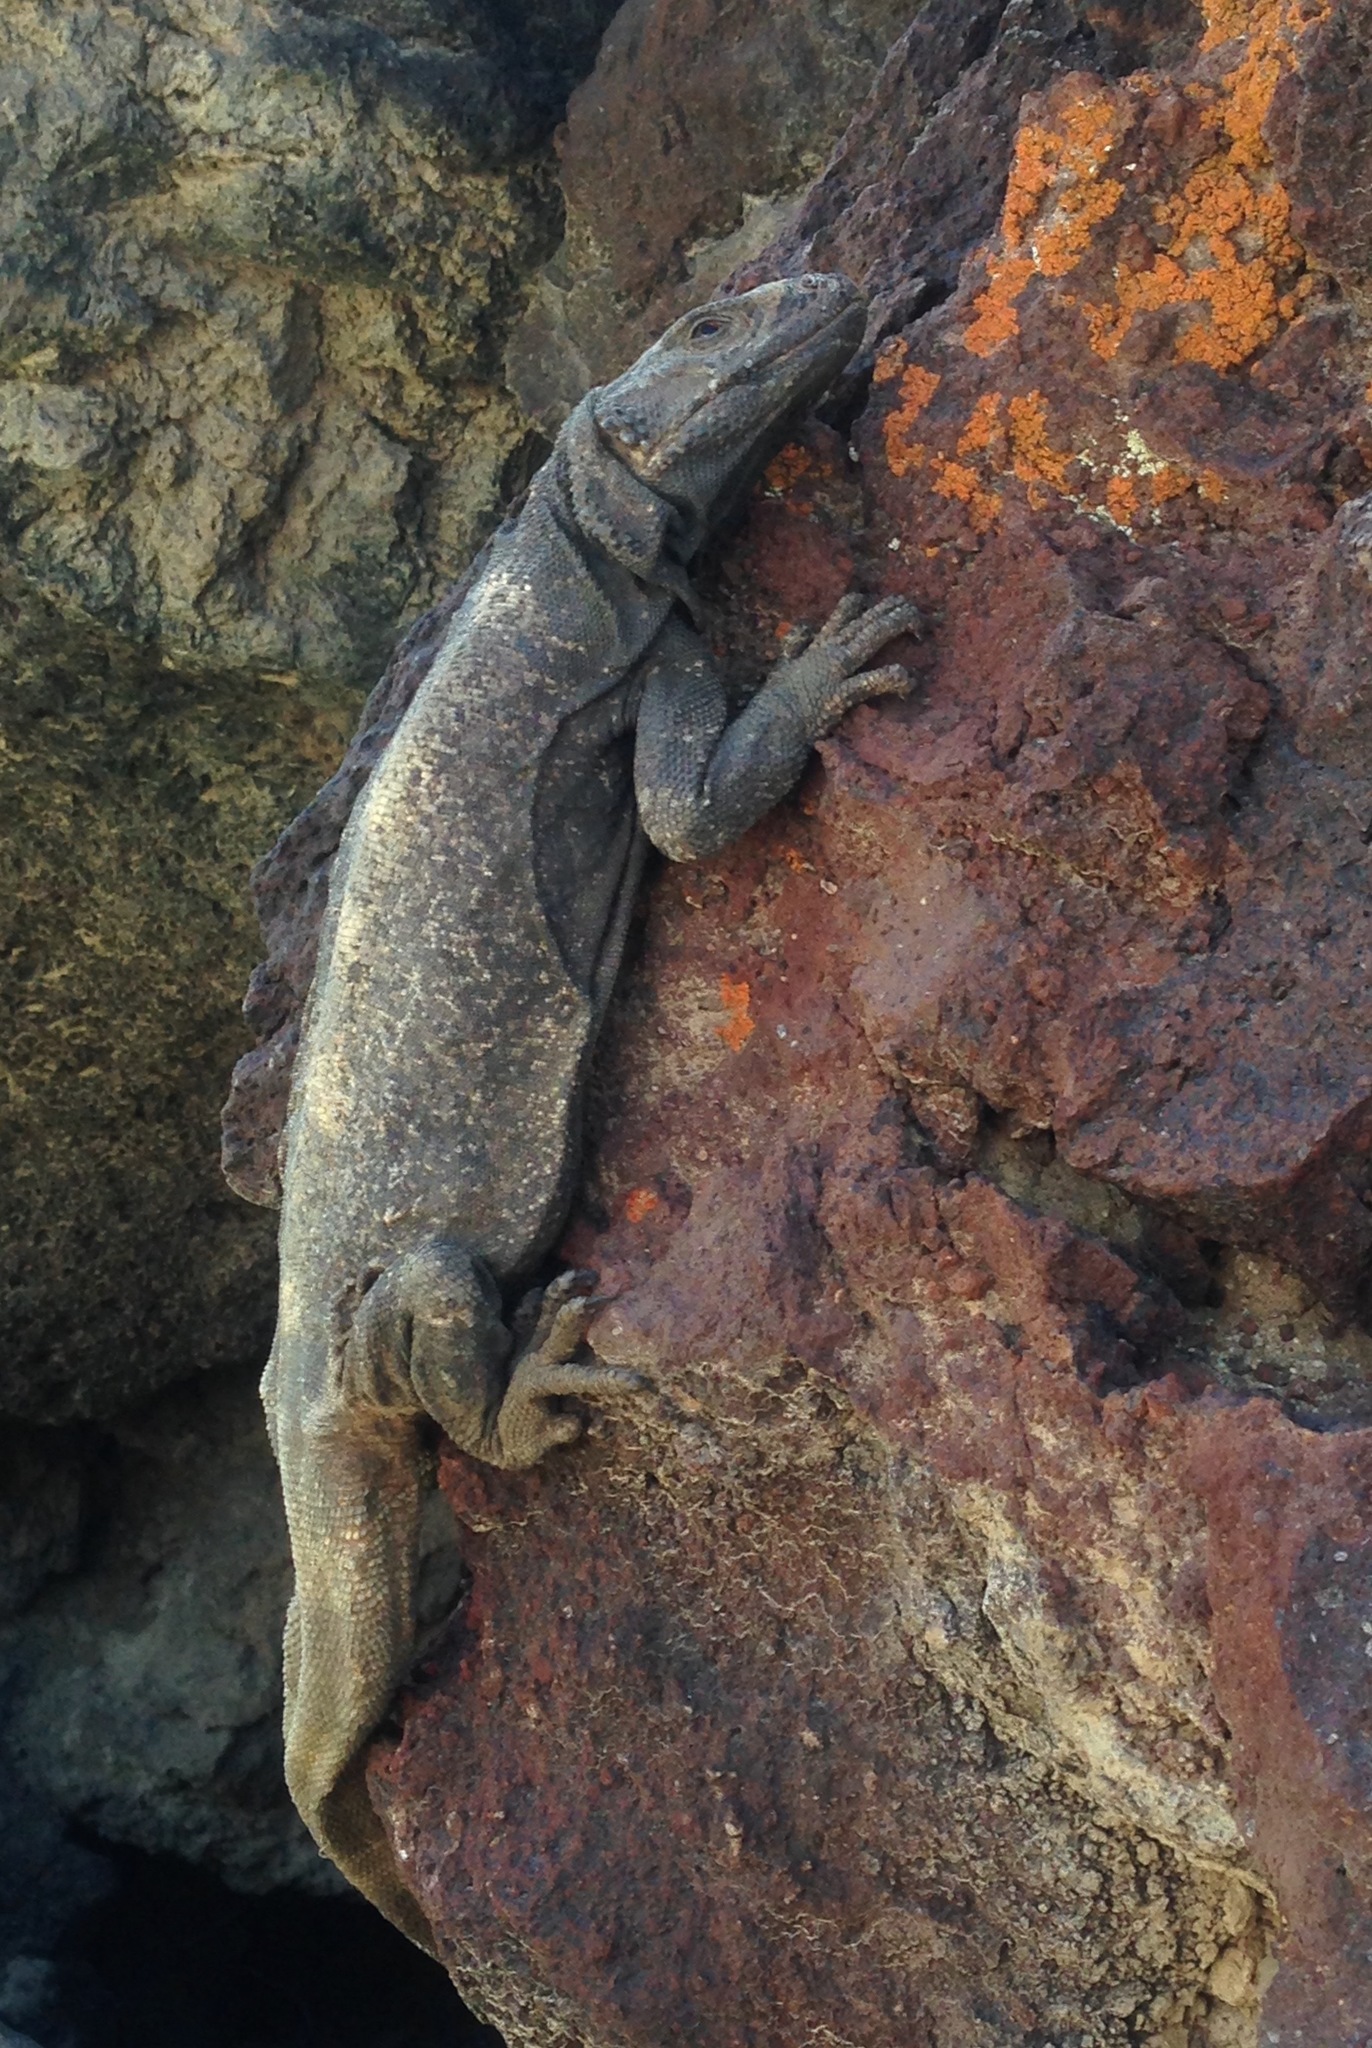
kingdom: Animalia
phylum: Chordata
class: Squamata
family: Iguanidae
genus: Sauromalus
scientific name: Sauromalus ater
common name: Northern chuckwalla
